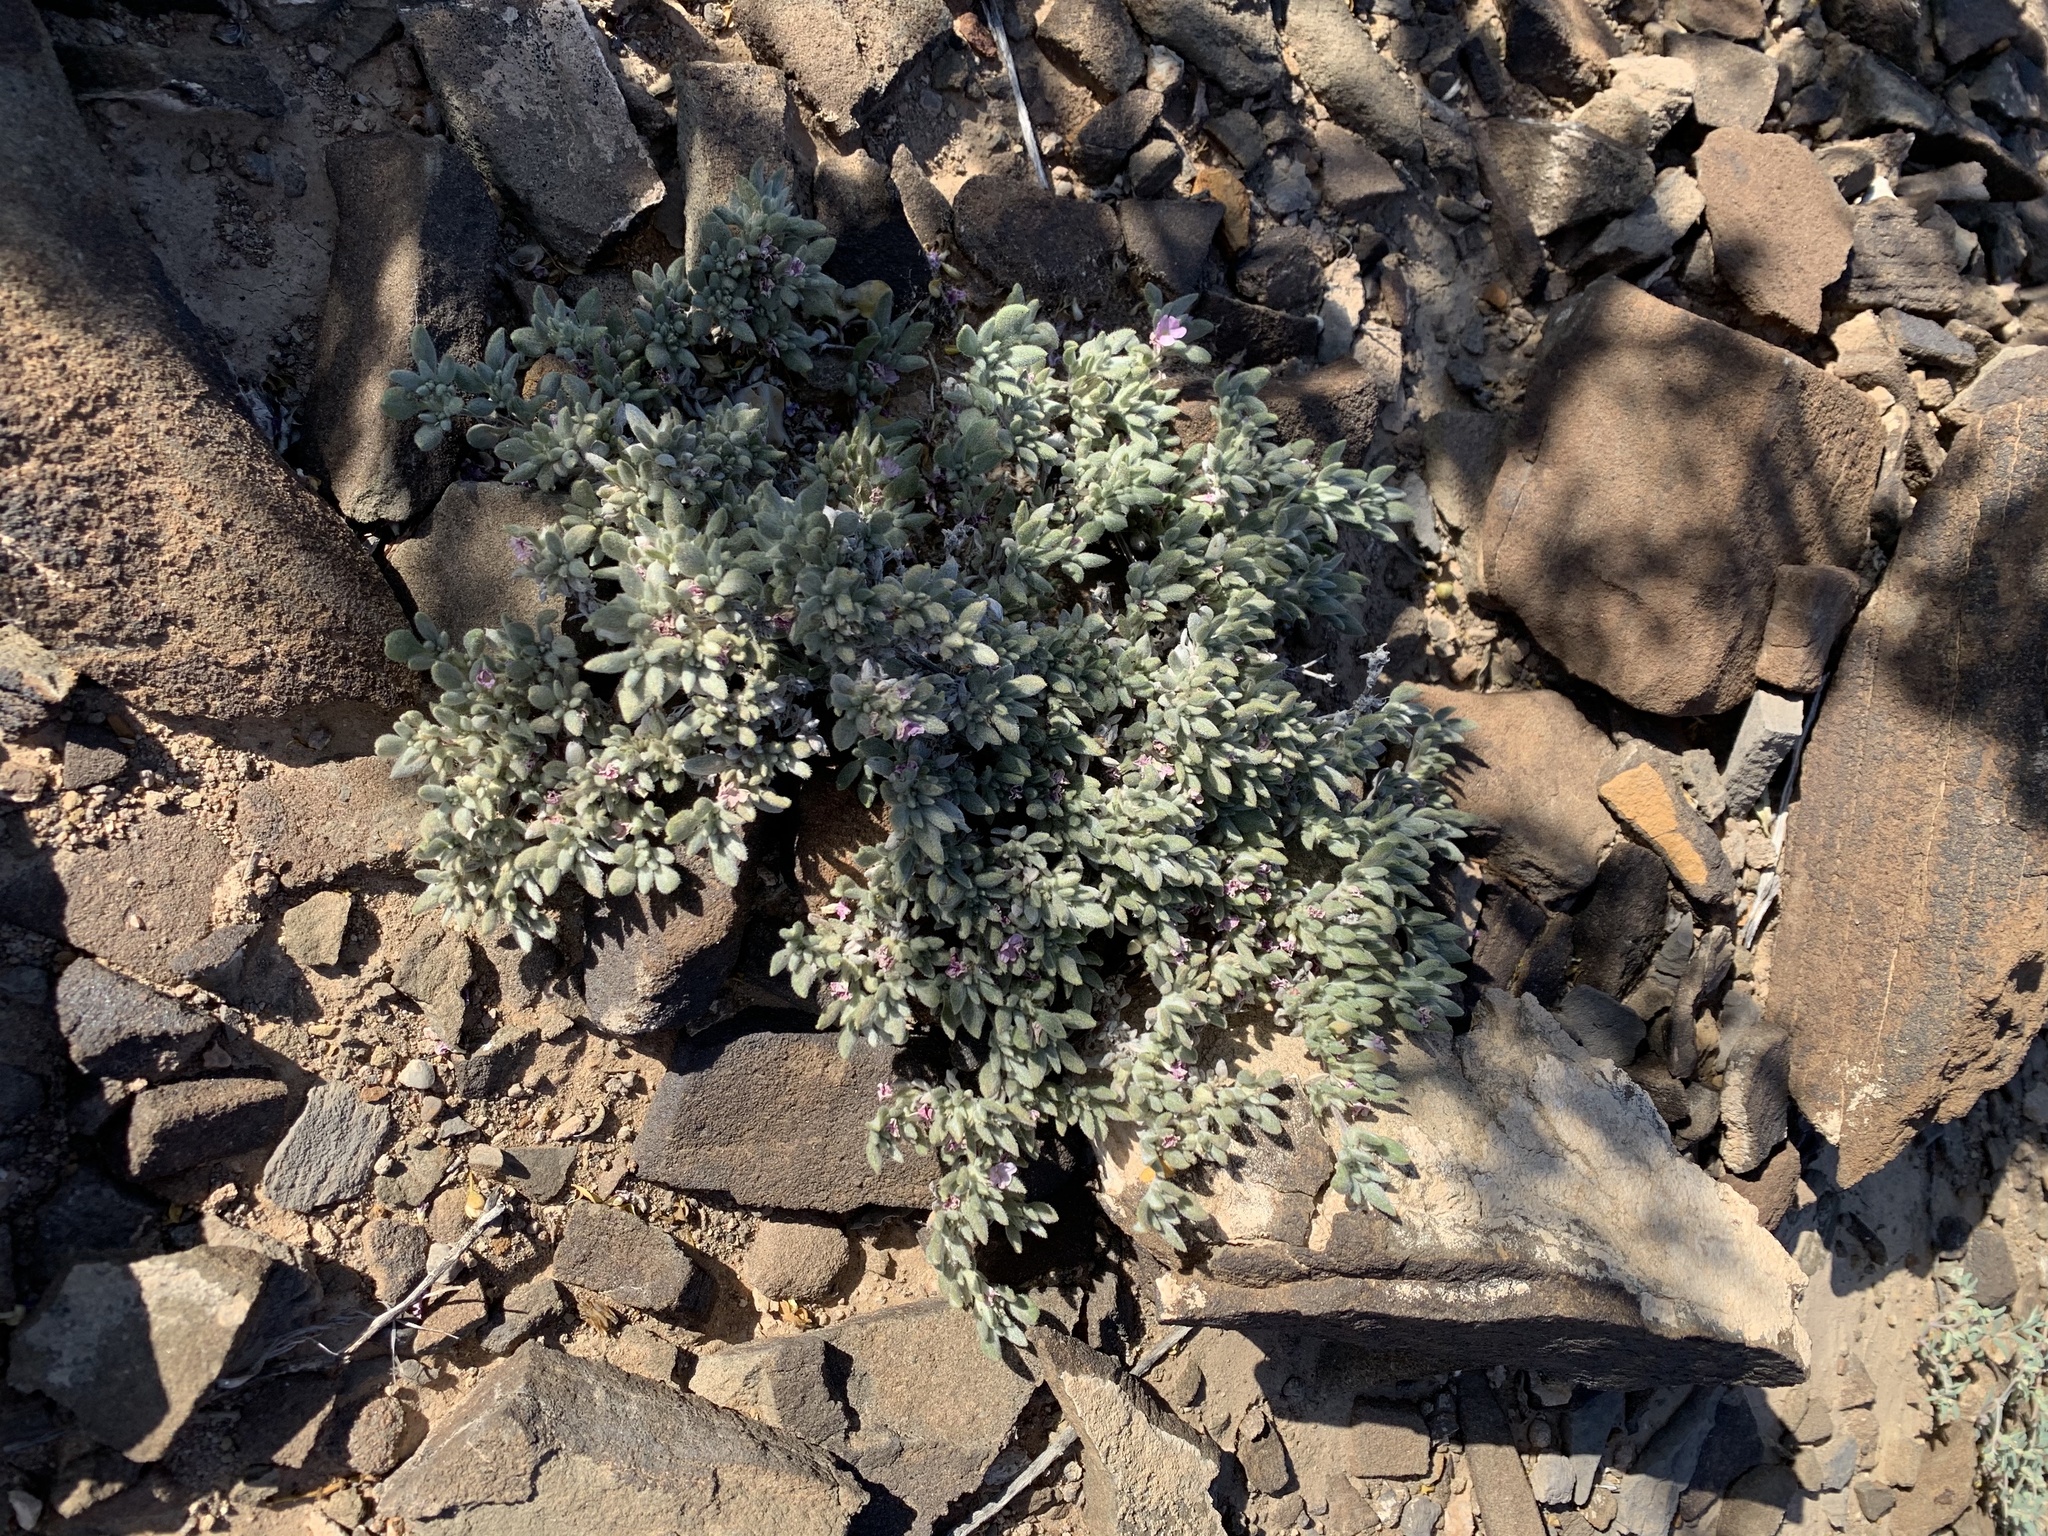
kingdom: Plantae
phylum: Tracheophyta
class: Magnoliopsida
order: Boraginales
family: Ehretiaceae
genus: Tiquilia
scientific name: Tiquilia canescens
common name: Hairy tiquilia
